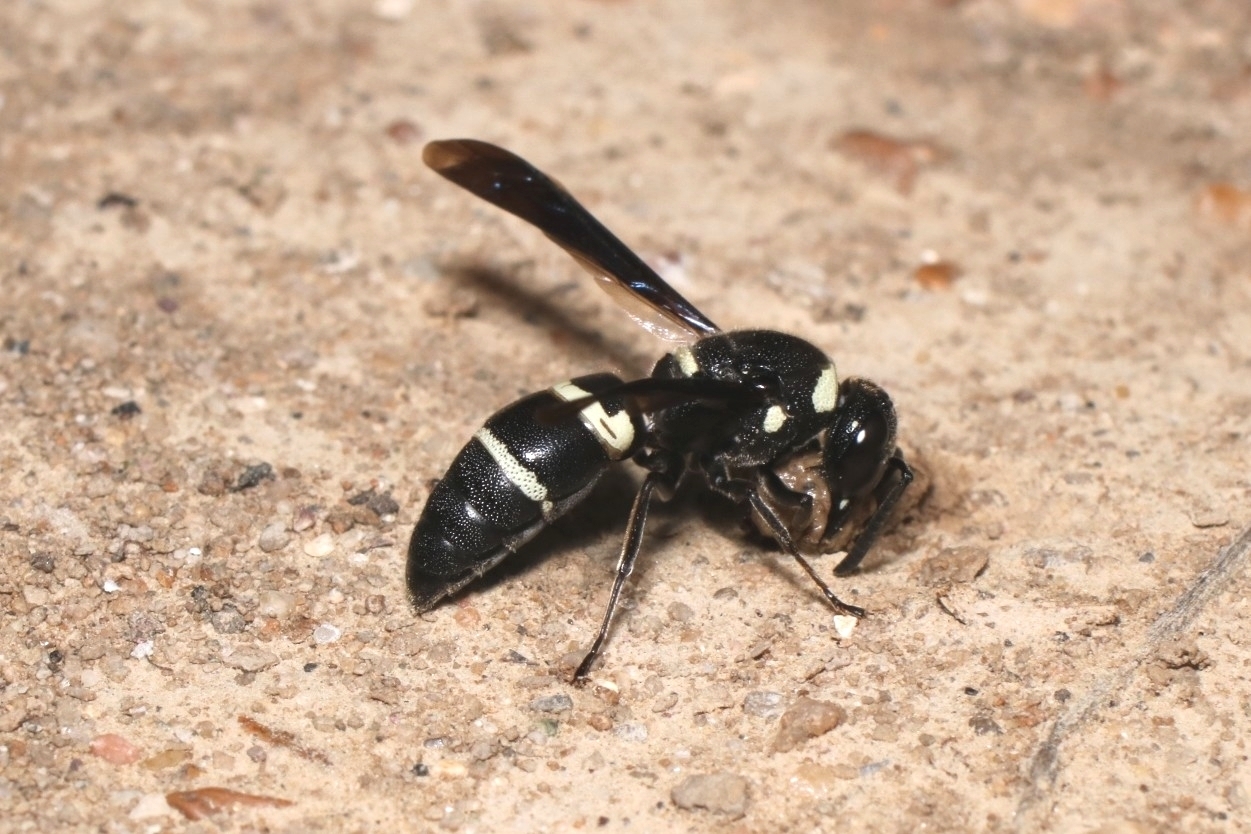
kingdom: Animalia
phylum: Arthropoda
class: Insecta
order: Hymenoptera
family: Eumenidae
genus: Euodynerus
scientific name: Euodynerus megaera
